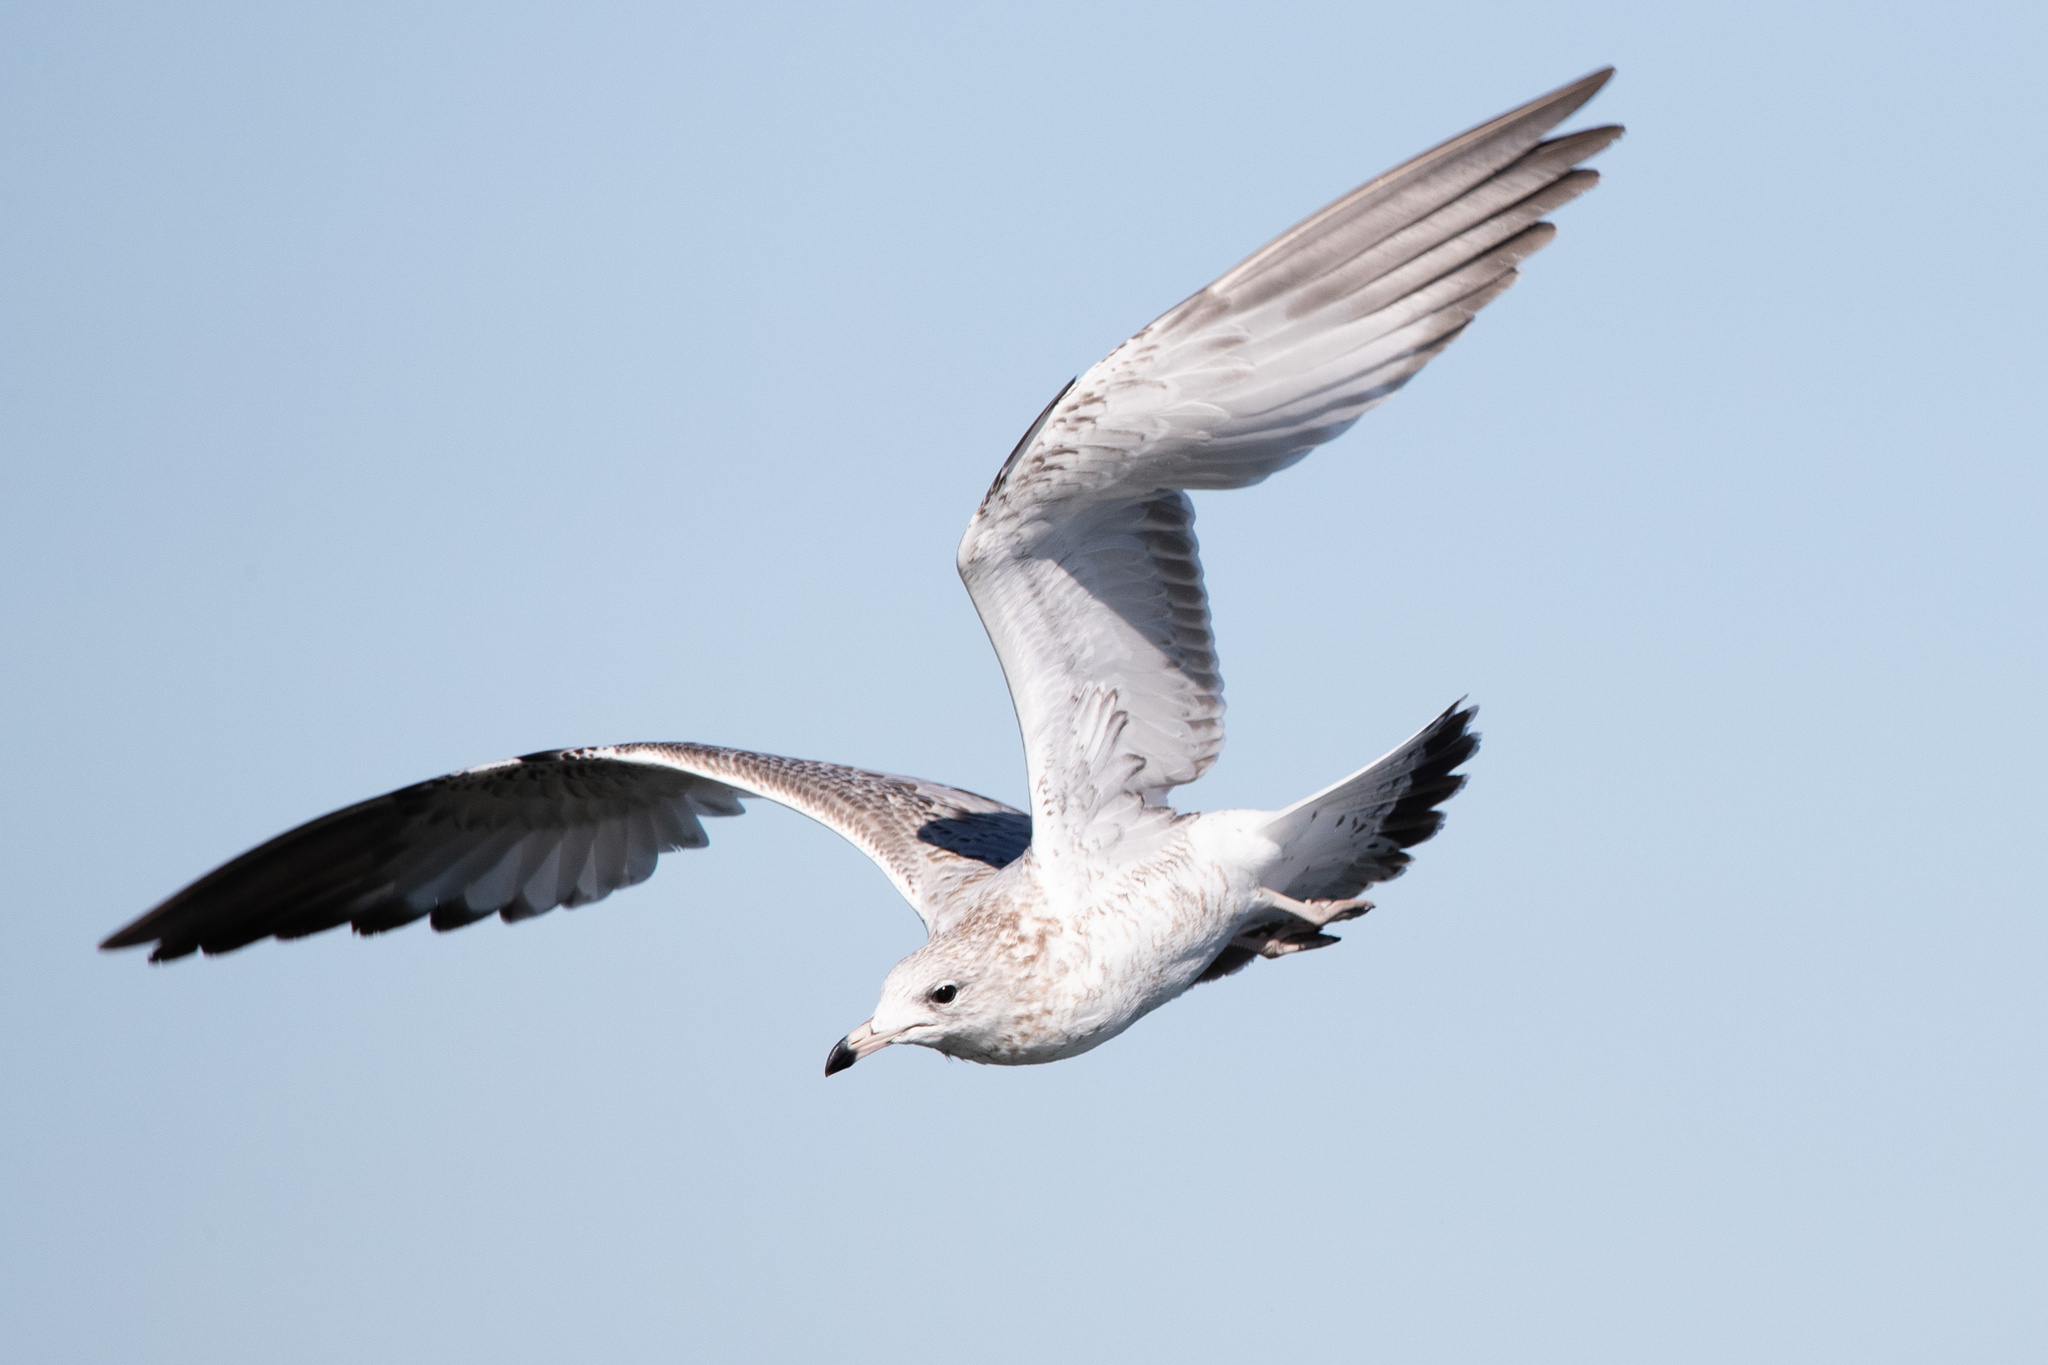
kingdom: Animalia
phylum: Chordata
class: Aves
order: Charadriiformes
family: Laridae
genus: Larus
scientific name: Larus delawarensis
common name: Ring-billed gull
